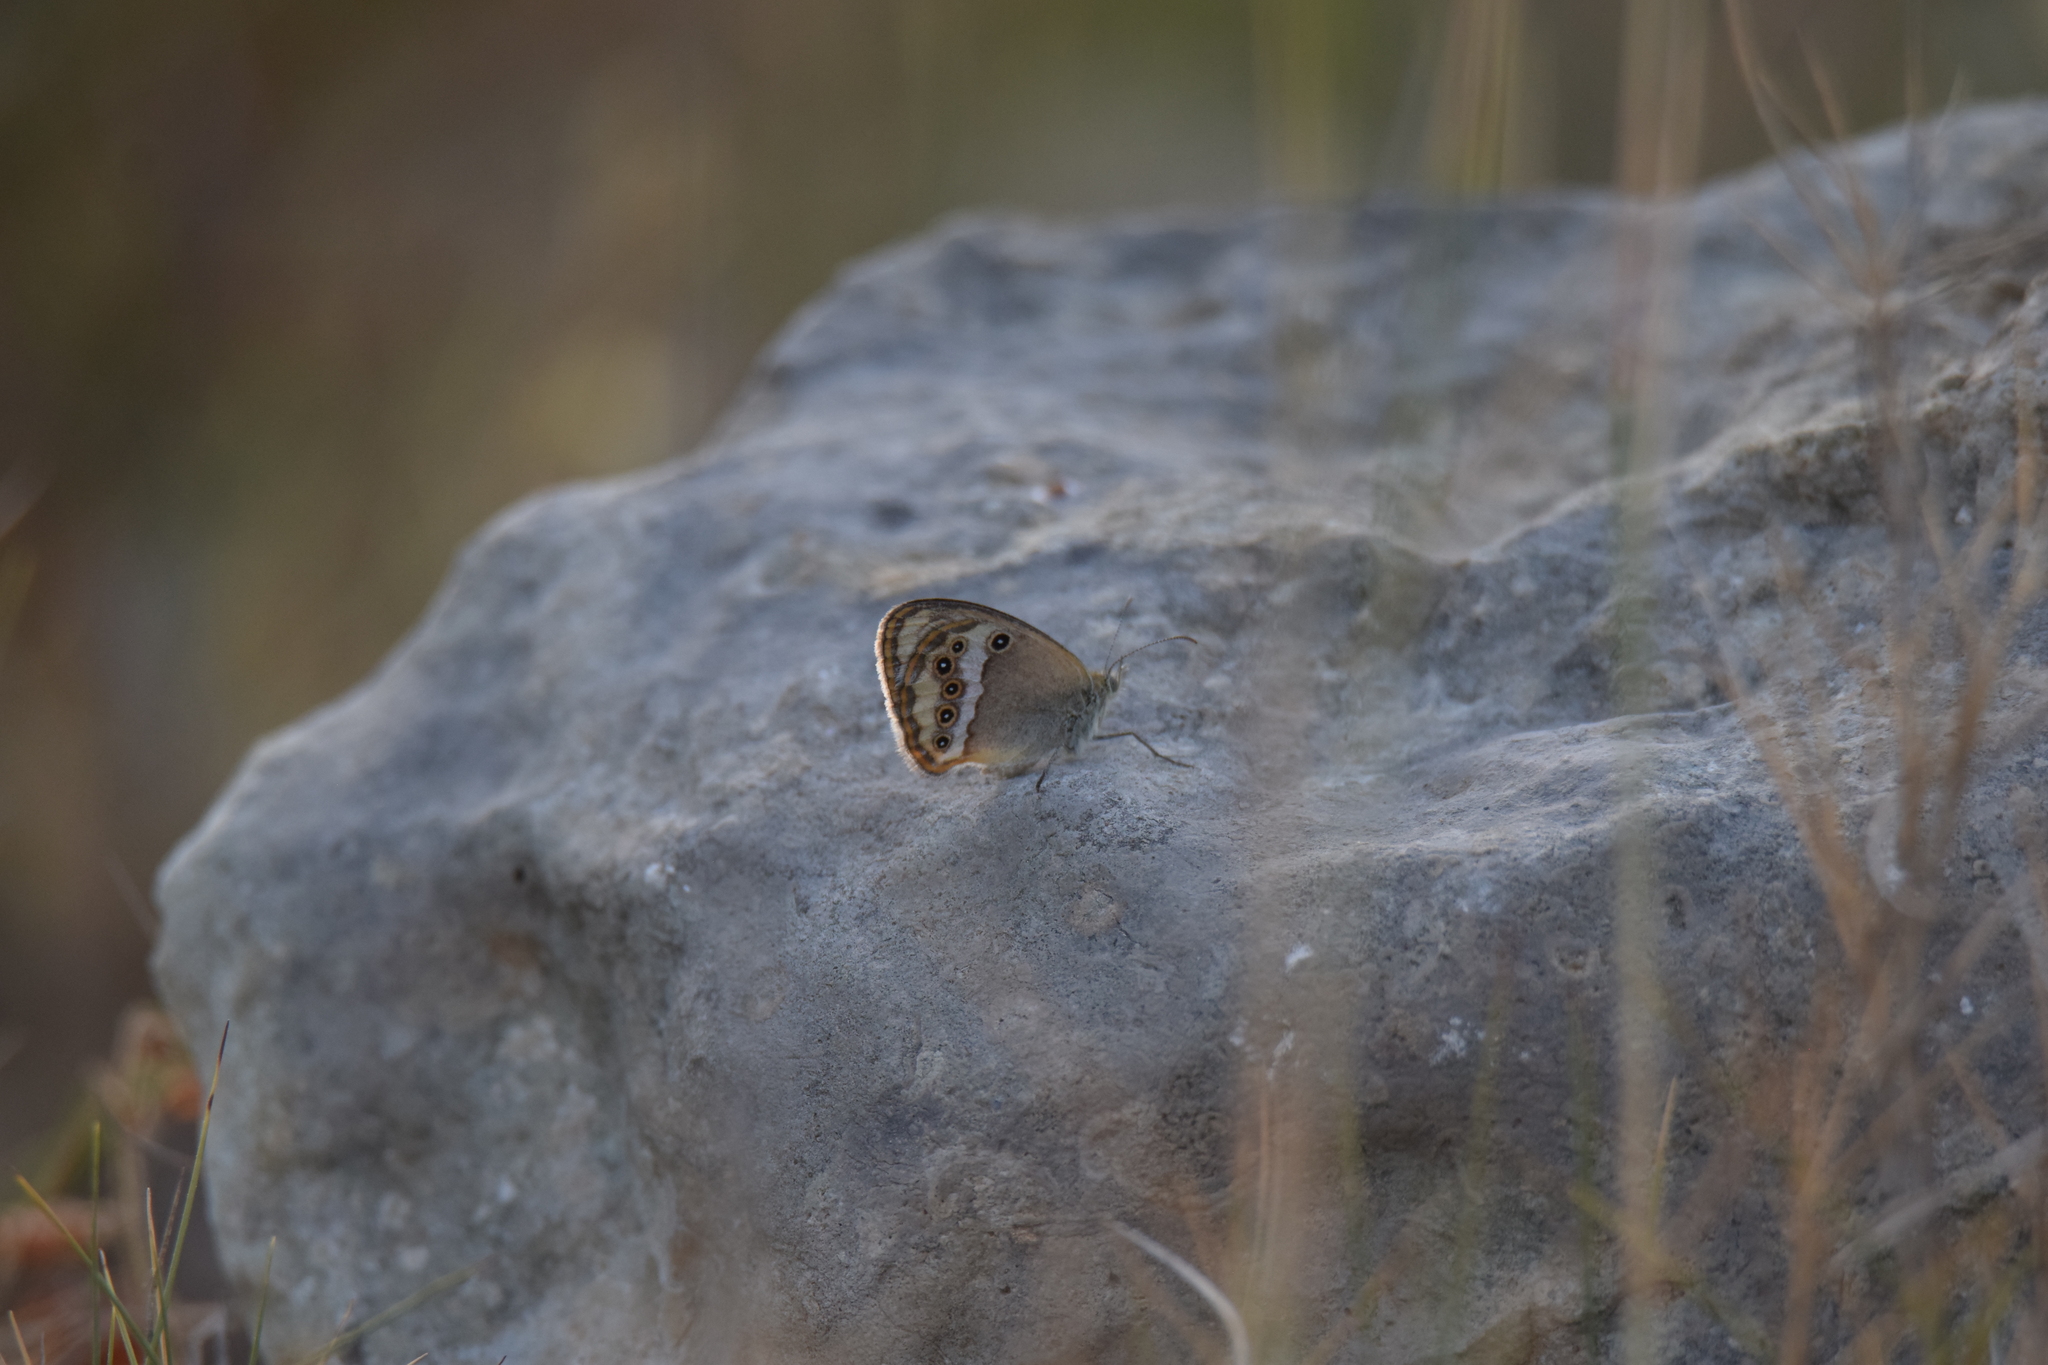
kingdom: Animalia
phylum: Arthropoda
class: Insecta
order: Lepidoptera
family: Nymphalidae
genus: Coenonympha
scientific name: Coenonympha dorus
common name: Dusky heath
